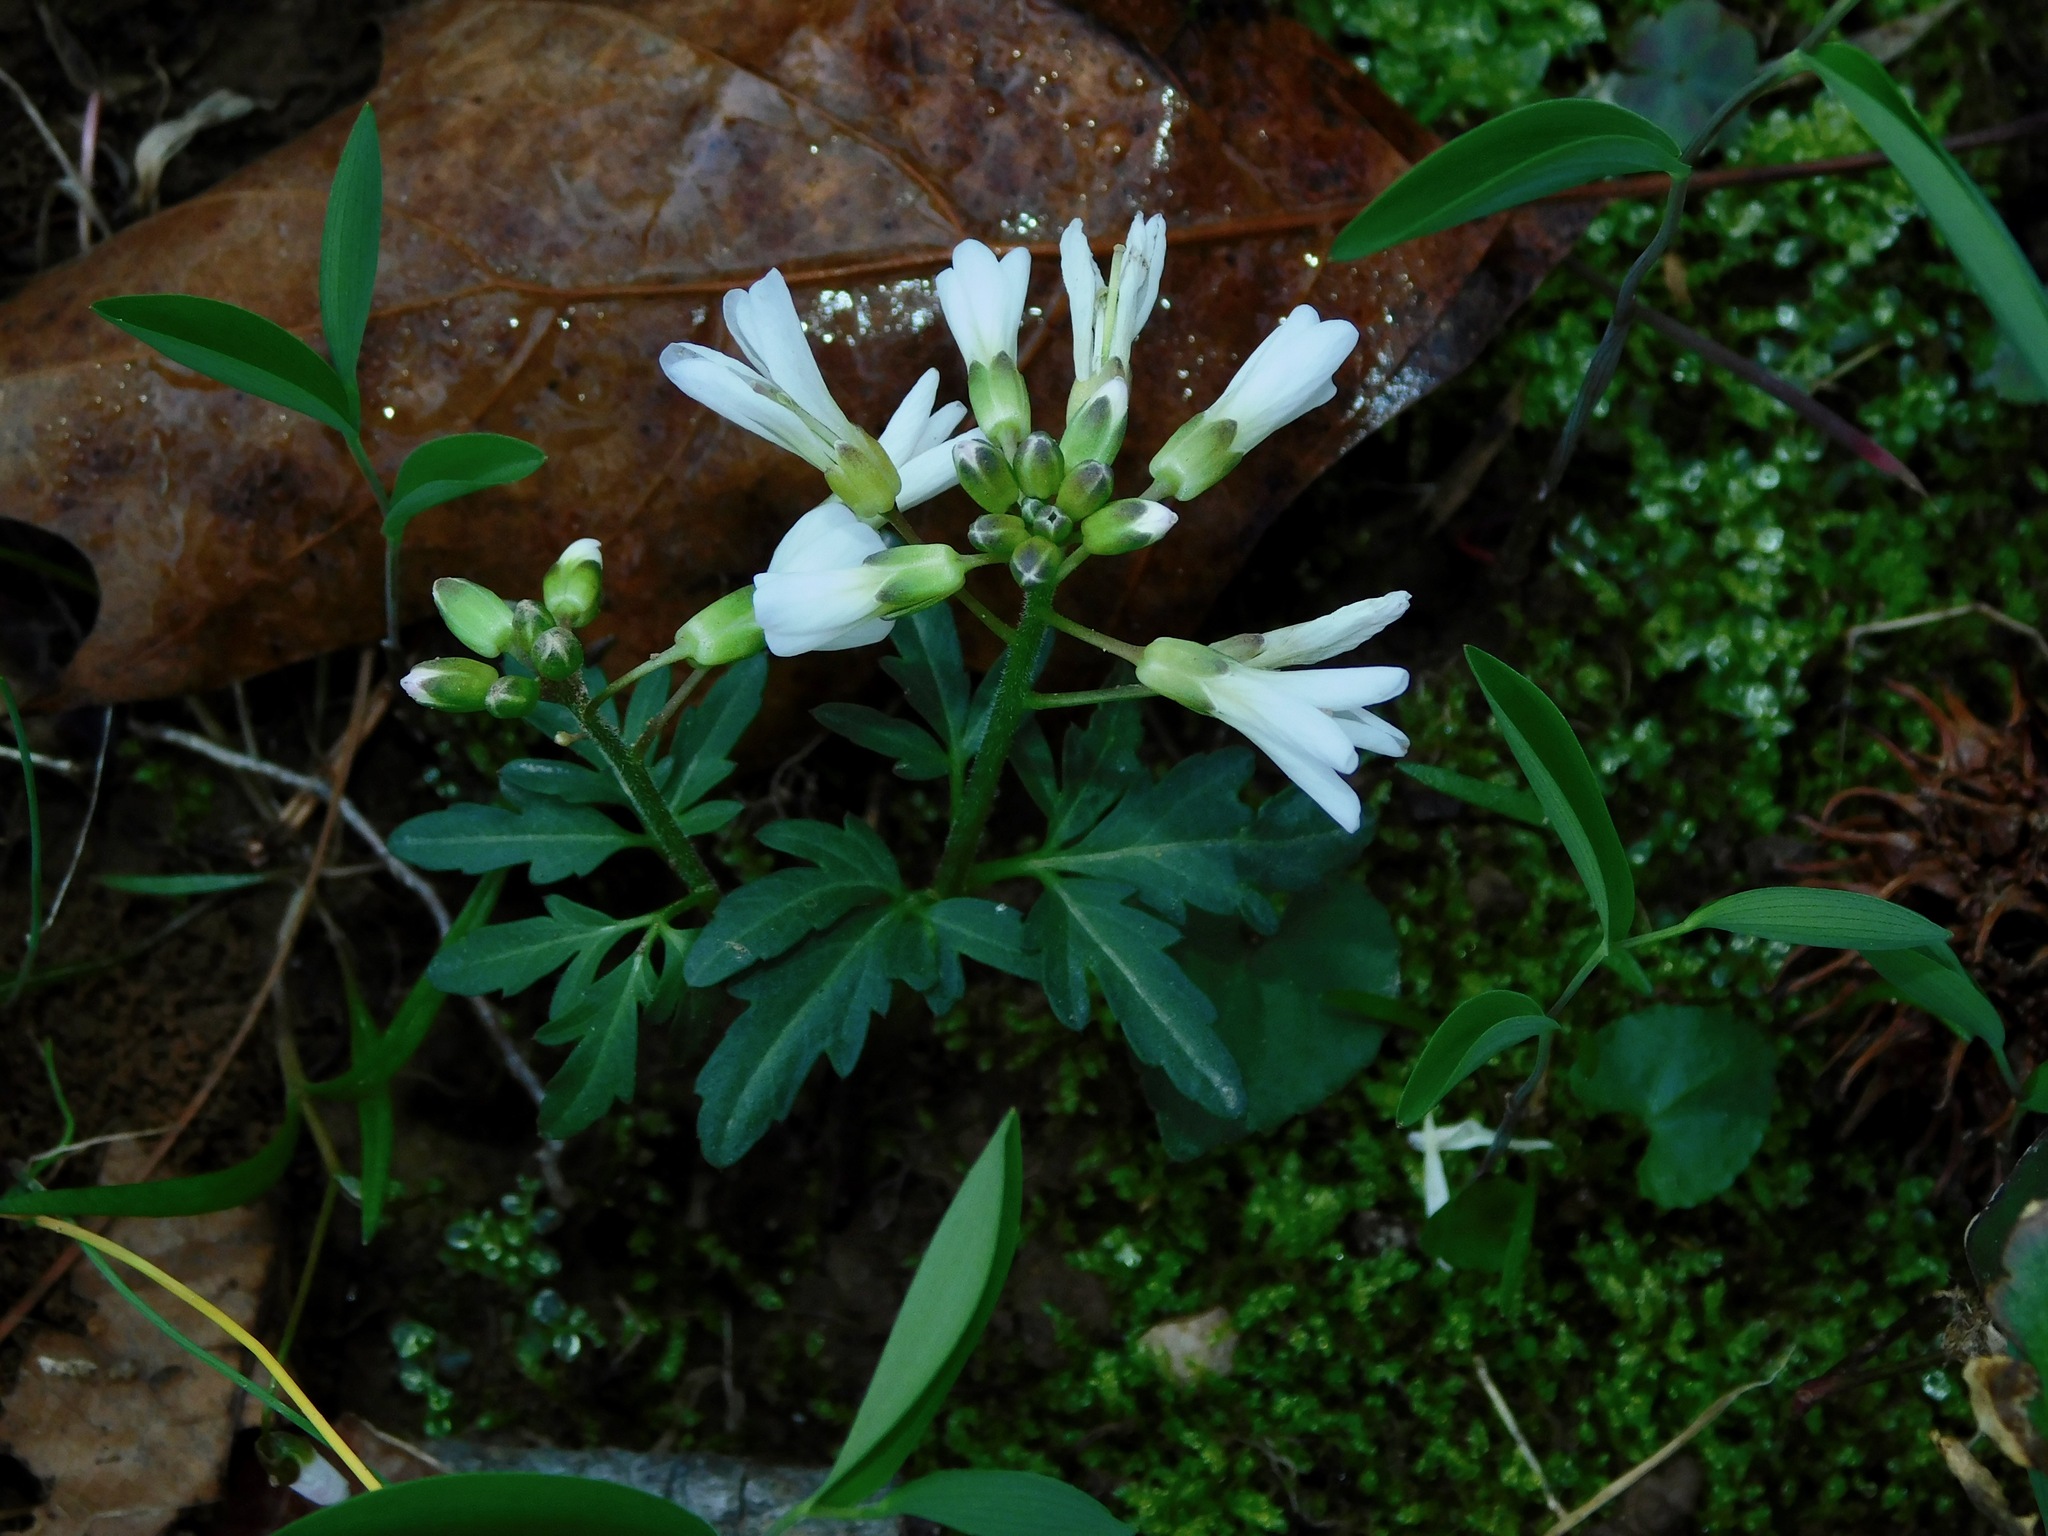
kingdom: Plantae
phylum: Tracheophyta
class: Magnoliopsida
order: Brassicales
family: Brassicaceae
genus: Cardamine
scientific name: Cardamine angustata
